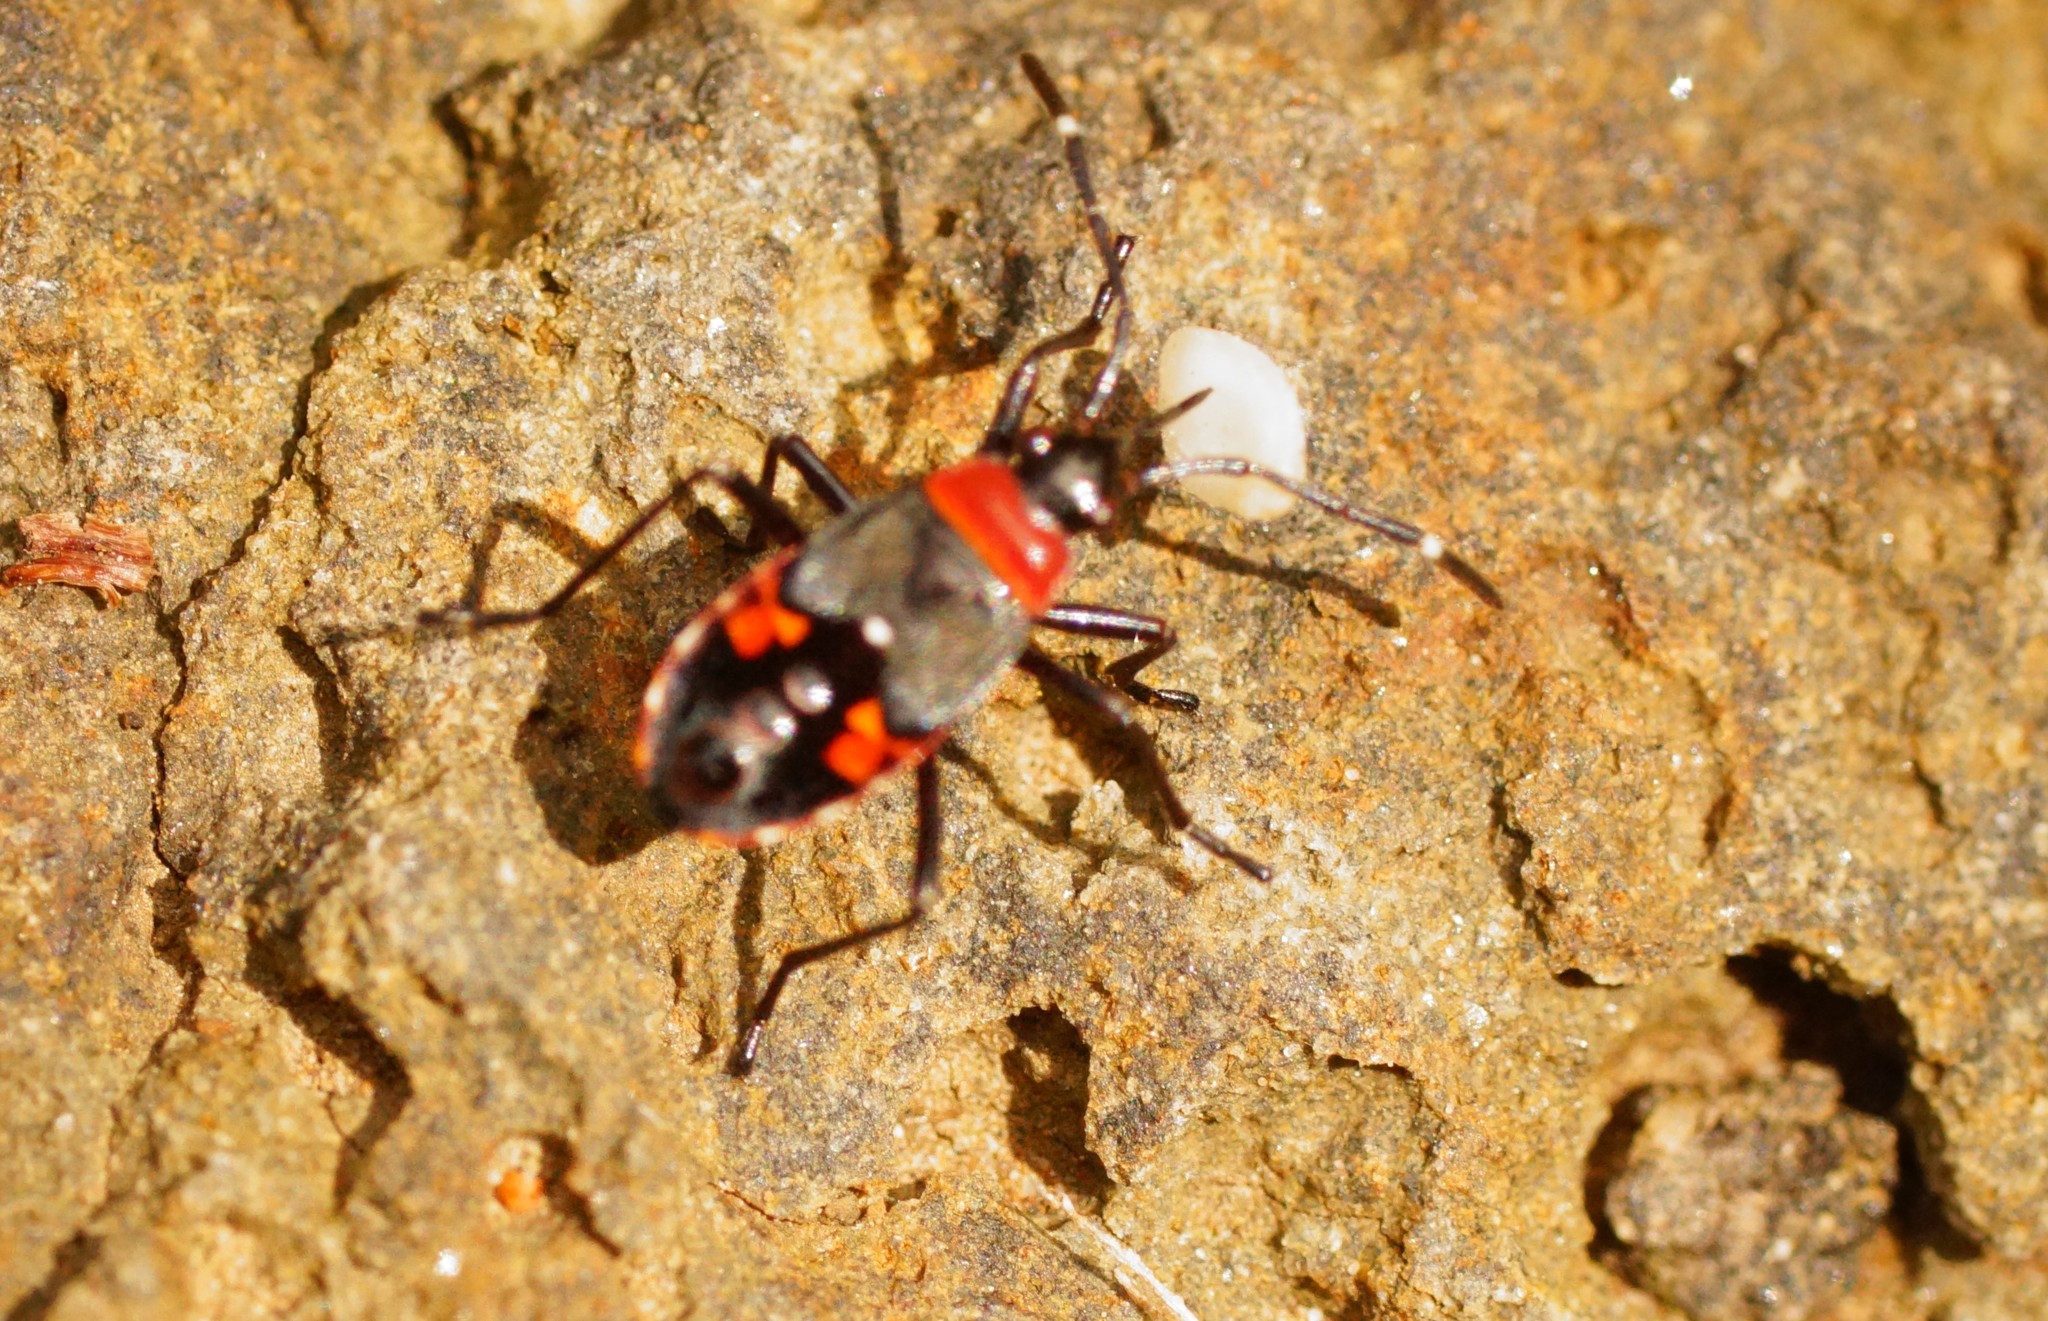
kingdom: Animalia
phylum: Arthropoda
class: Insecta
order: Hemiptera
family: Lygaeidae
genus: Melanerythrus
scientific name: Melanerythrus mactans
